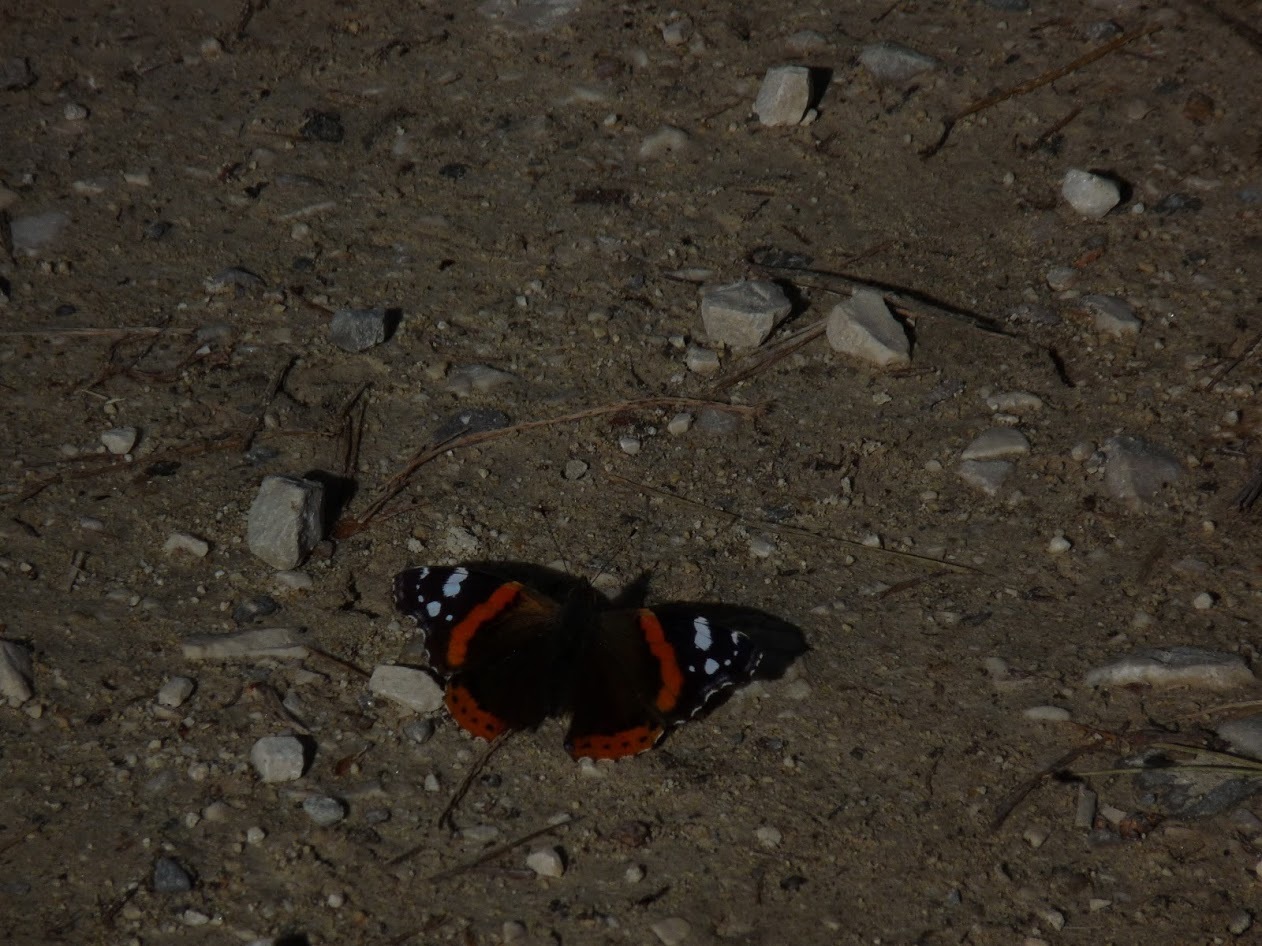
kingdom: Animalia
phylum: Arthropoda
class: Insecta
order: Lepidoptera
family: Nymphalidae
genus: Vanessa
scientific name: Vanessa atalanta
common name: Red admiral
